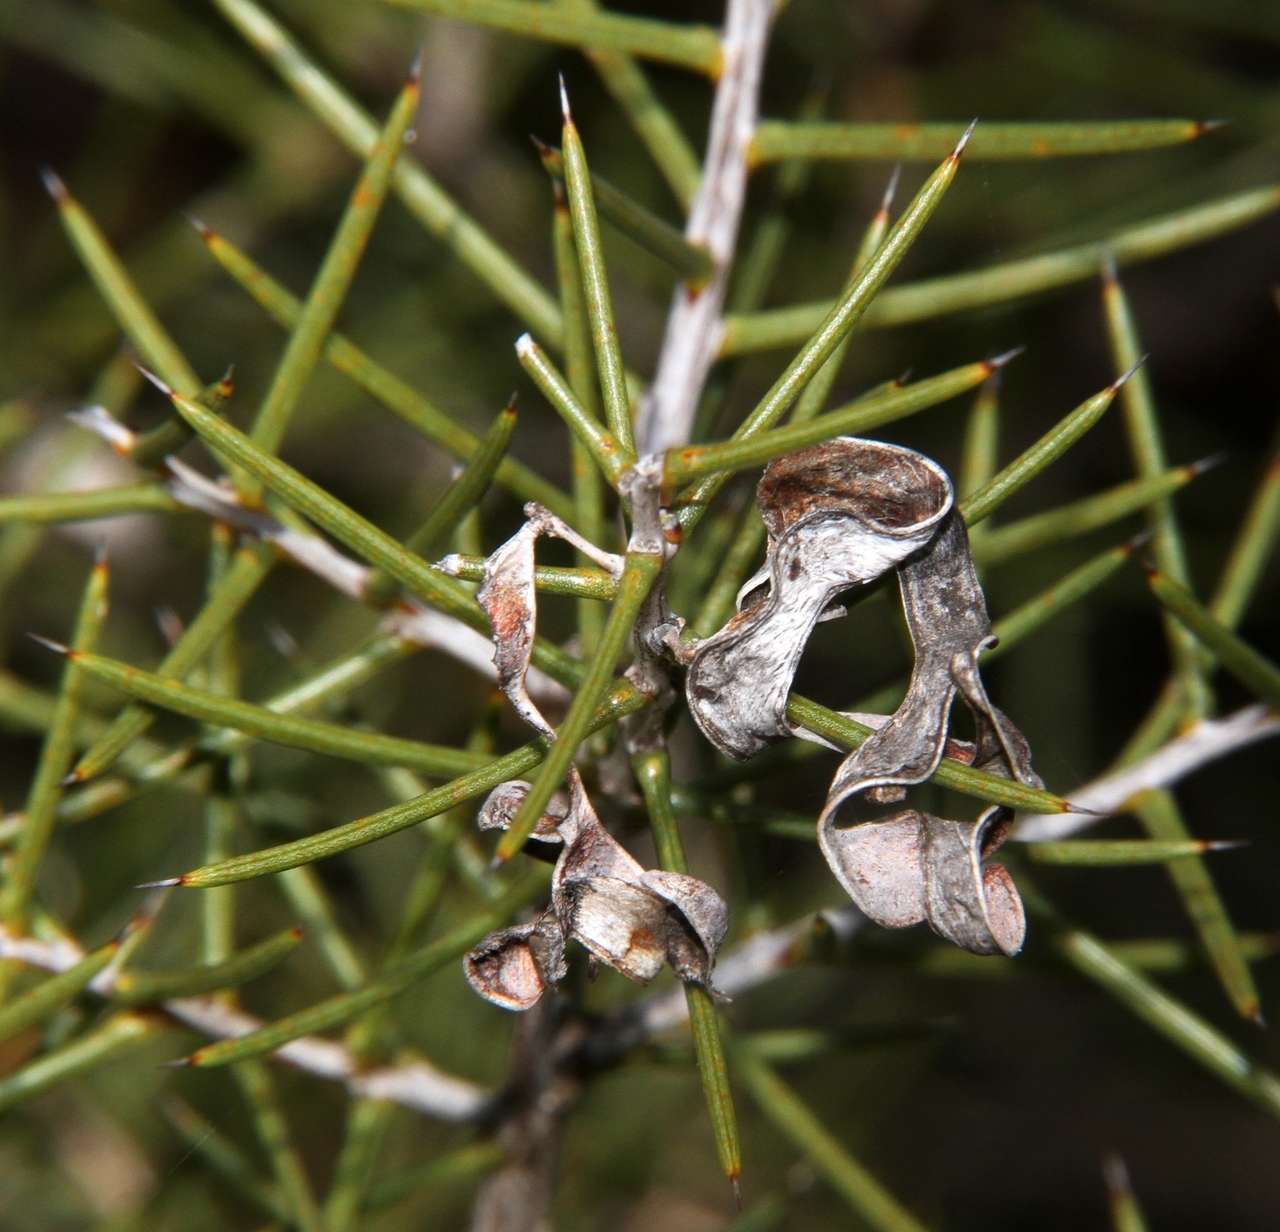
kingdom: Plantae
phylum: Tracheophyta
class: Magnoliopsida
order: Fabales
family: Fabaceae
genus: Acacia
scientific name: Acacia colletioides
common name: Spinebush
